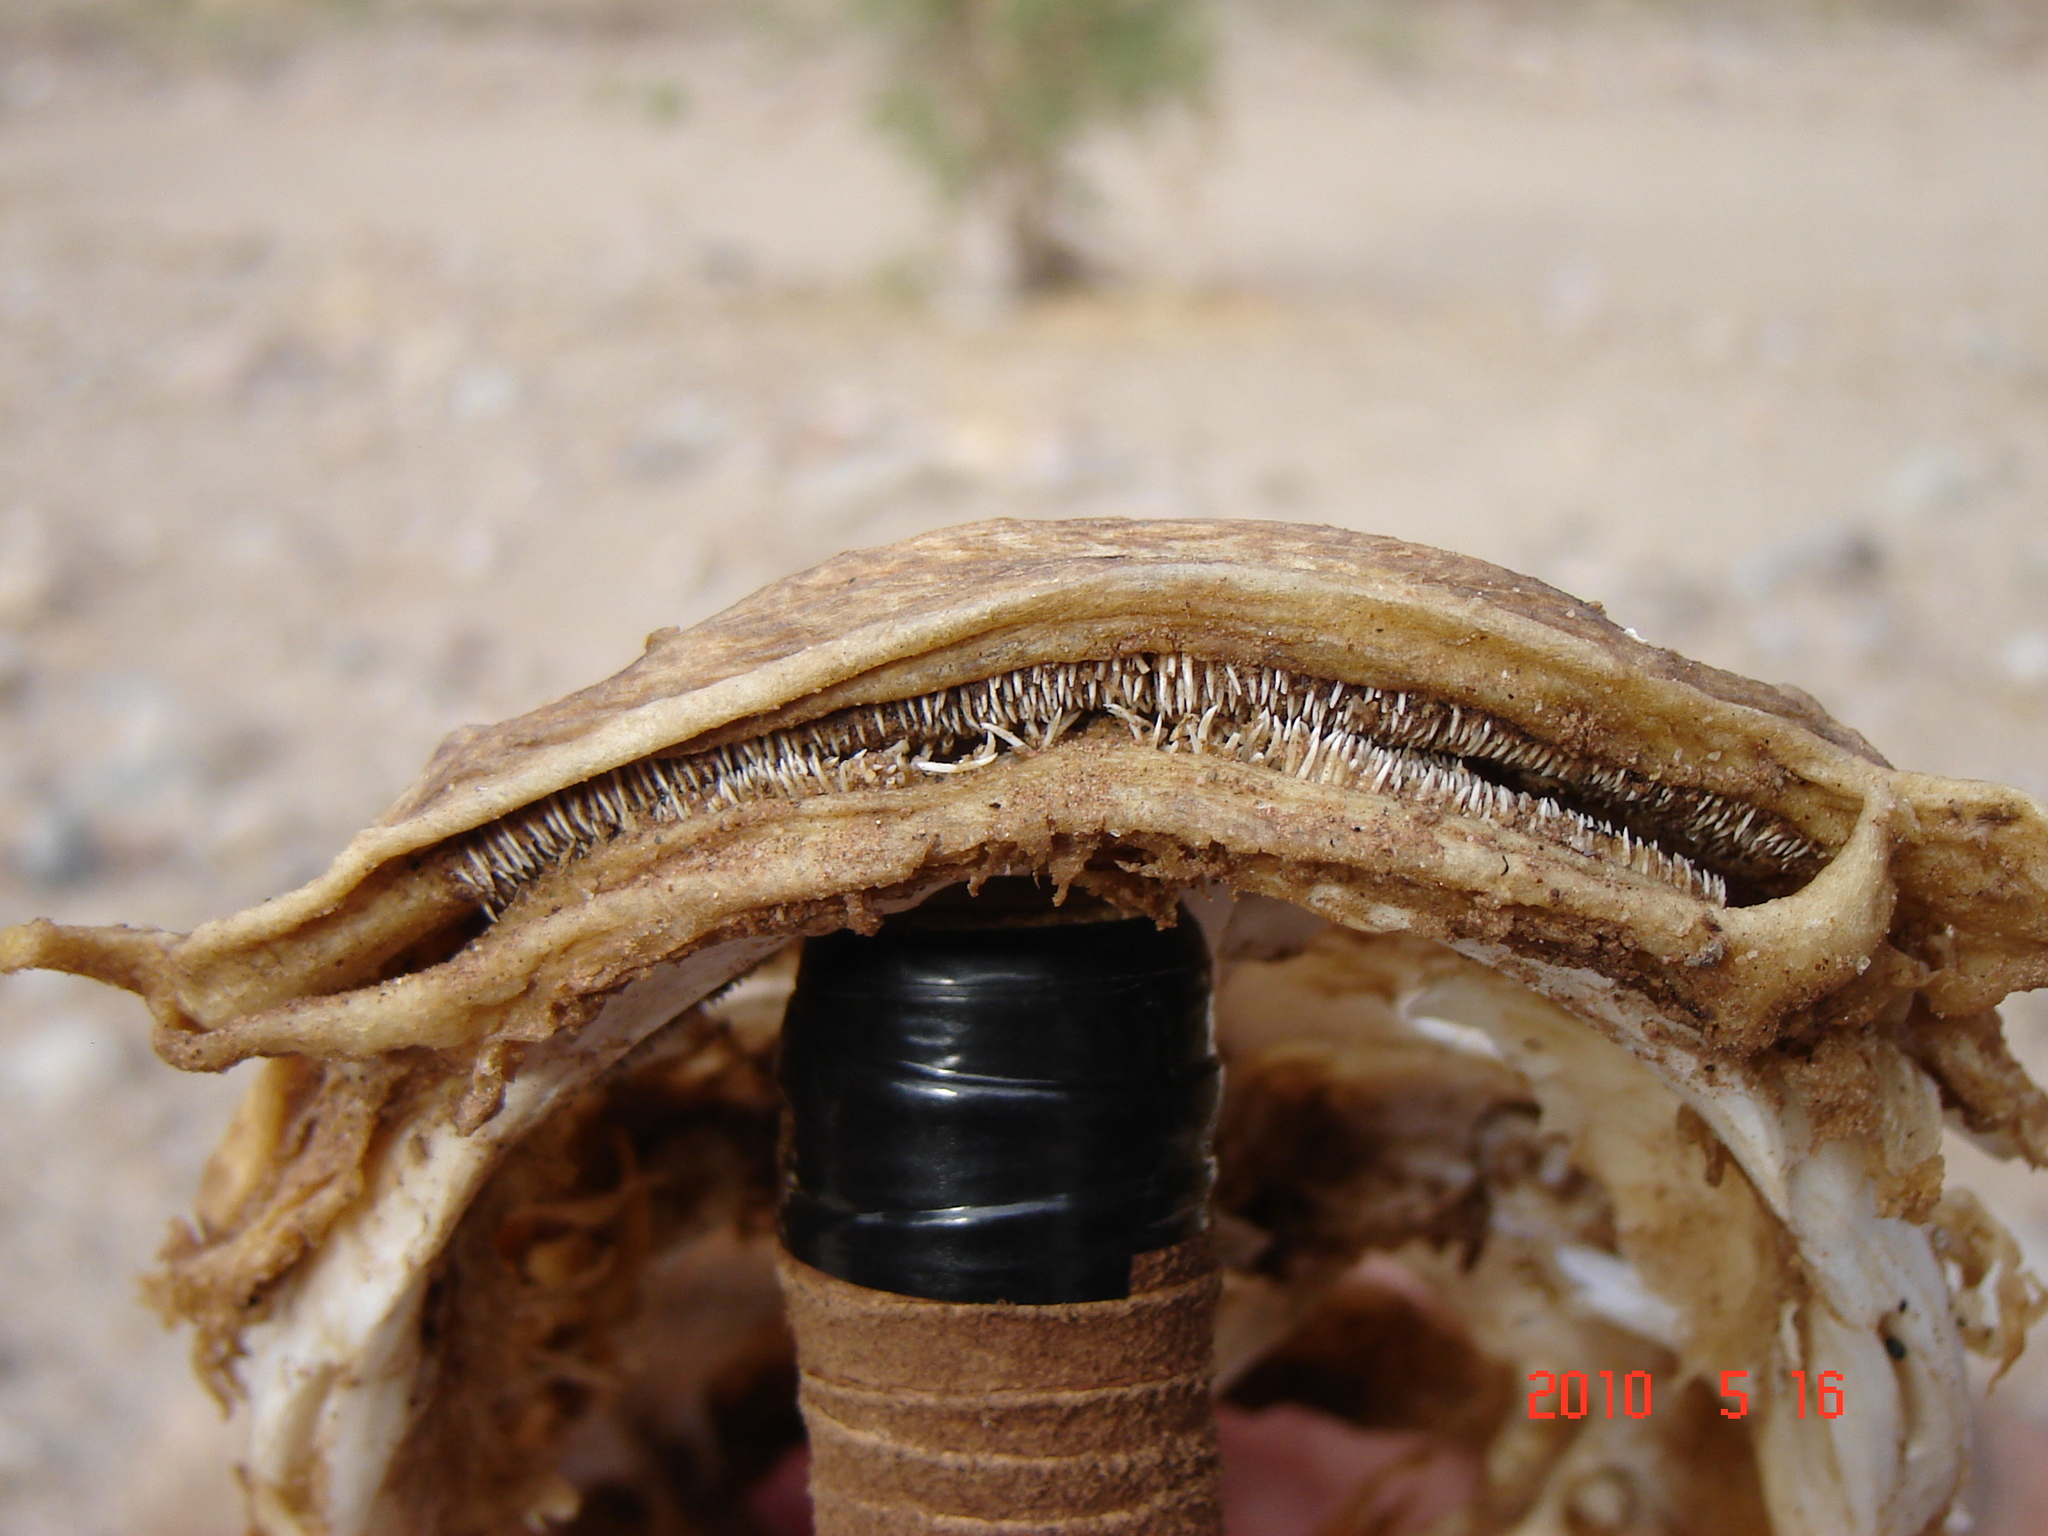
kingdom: Animalia
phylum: Chordata
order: Siluriformes
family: Clariidae
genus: Clarias
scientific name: Clarias gariepinus
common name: African catfish
